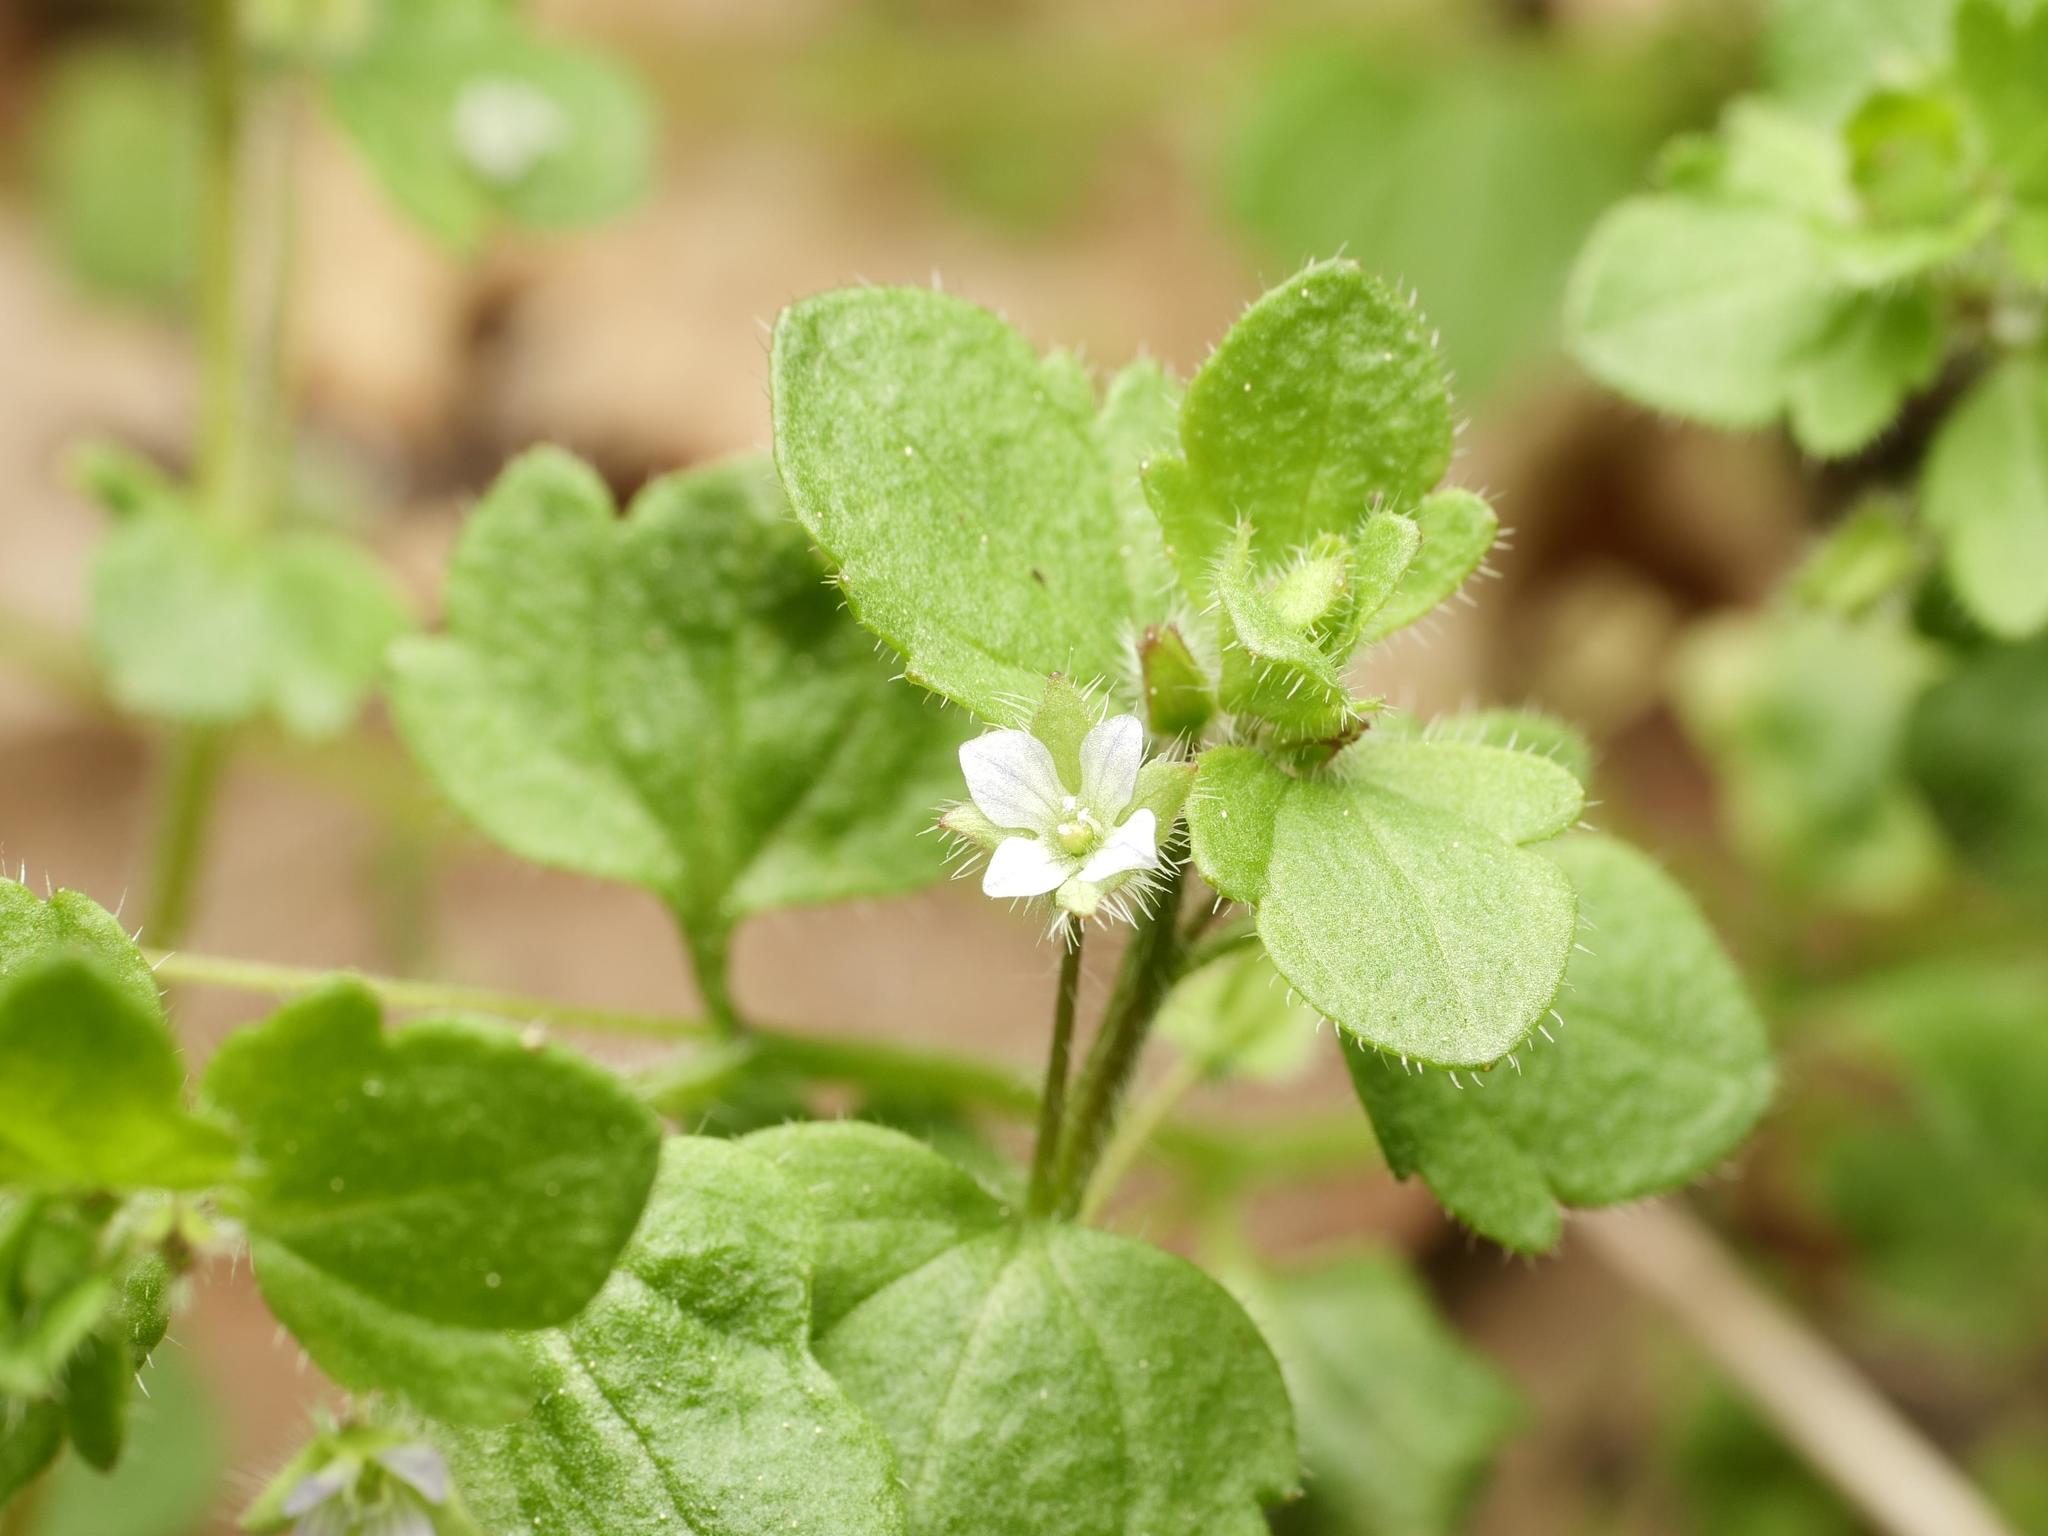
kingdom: Plantae
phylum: Tracheophyta
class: Magnoliopsida
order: Lamiales
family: Plantaginaceae
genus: Veronica
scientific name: Veronica sublobata
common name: False ivy-leaved speedwell
